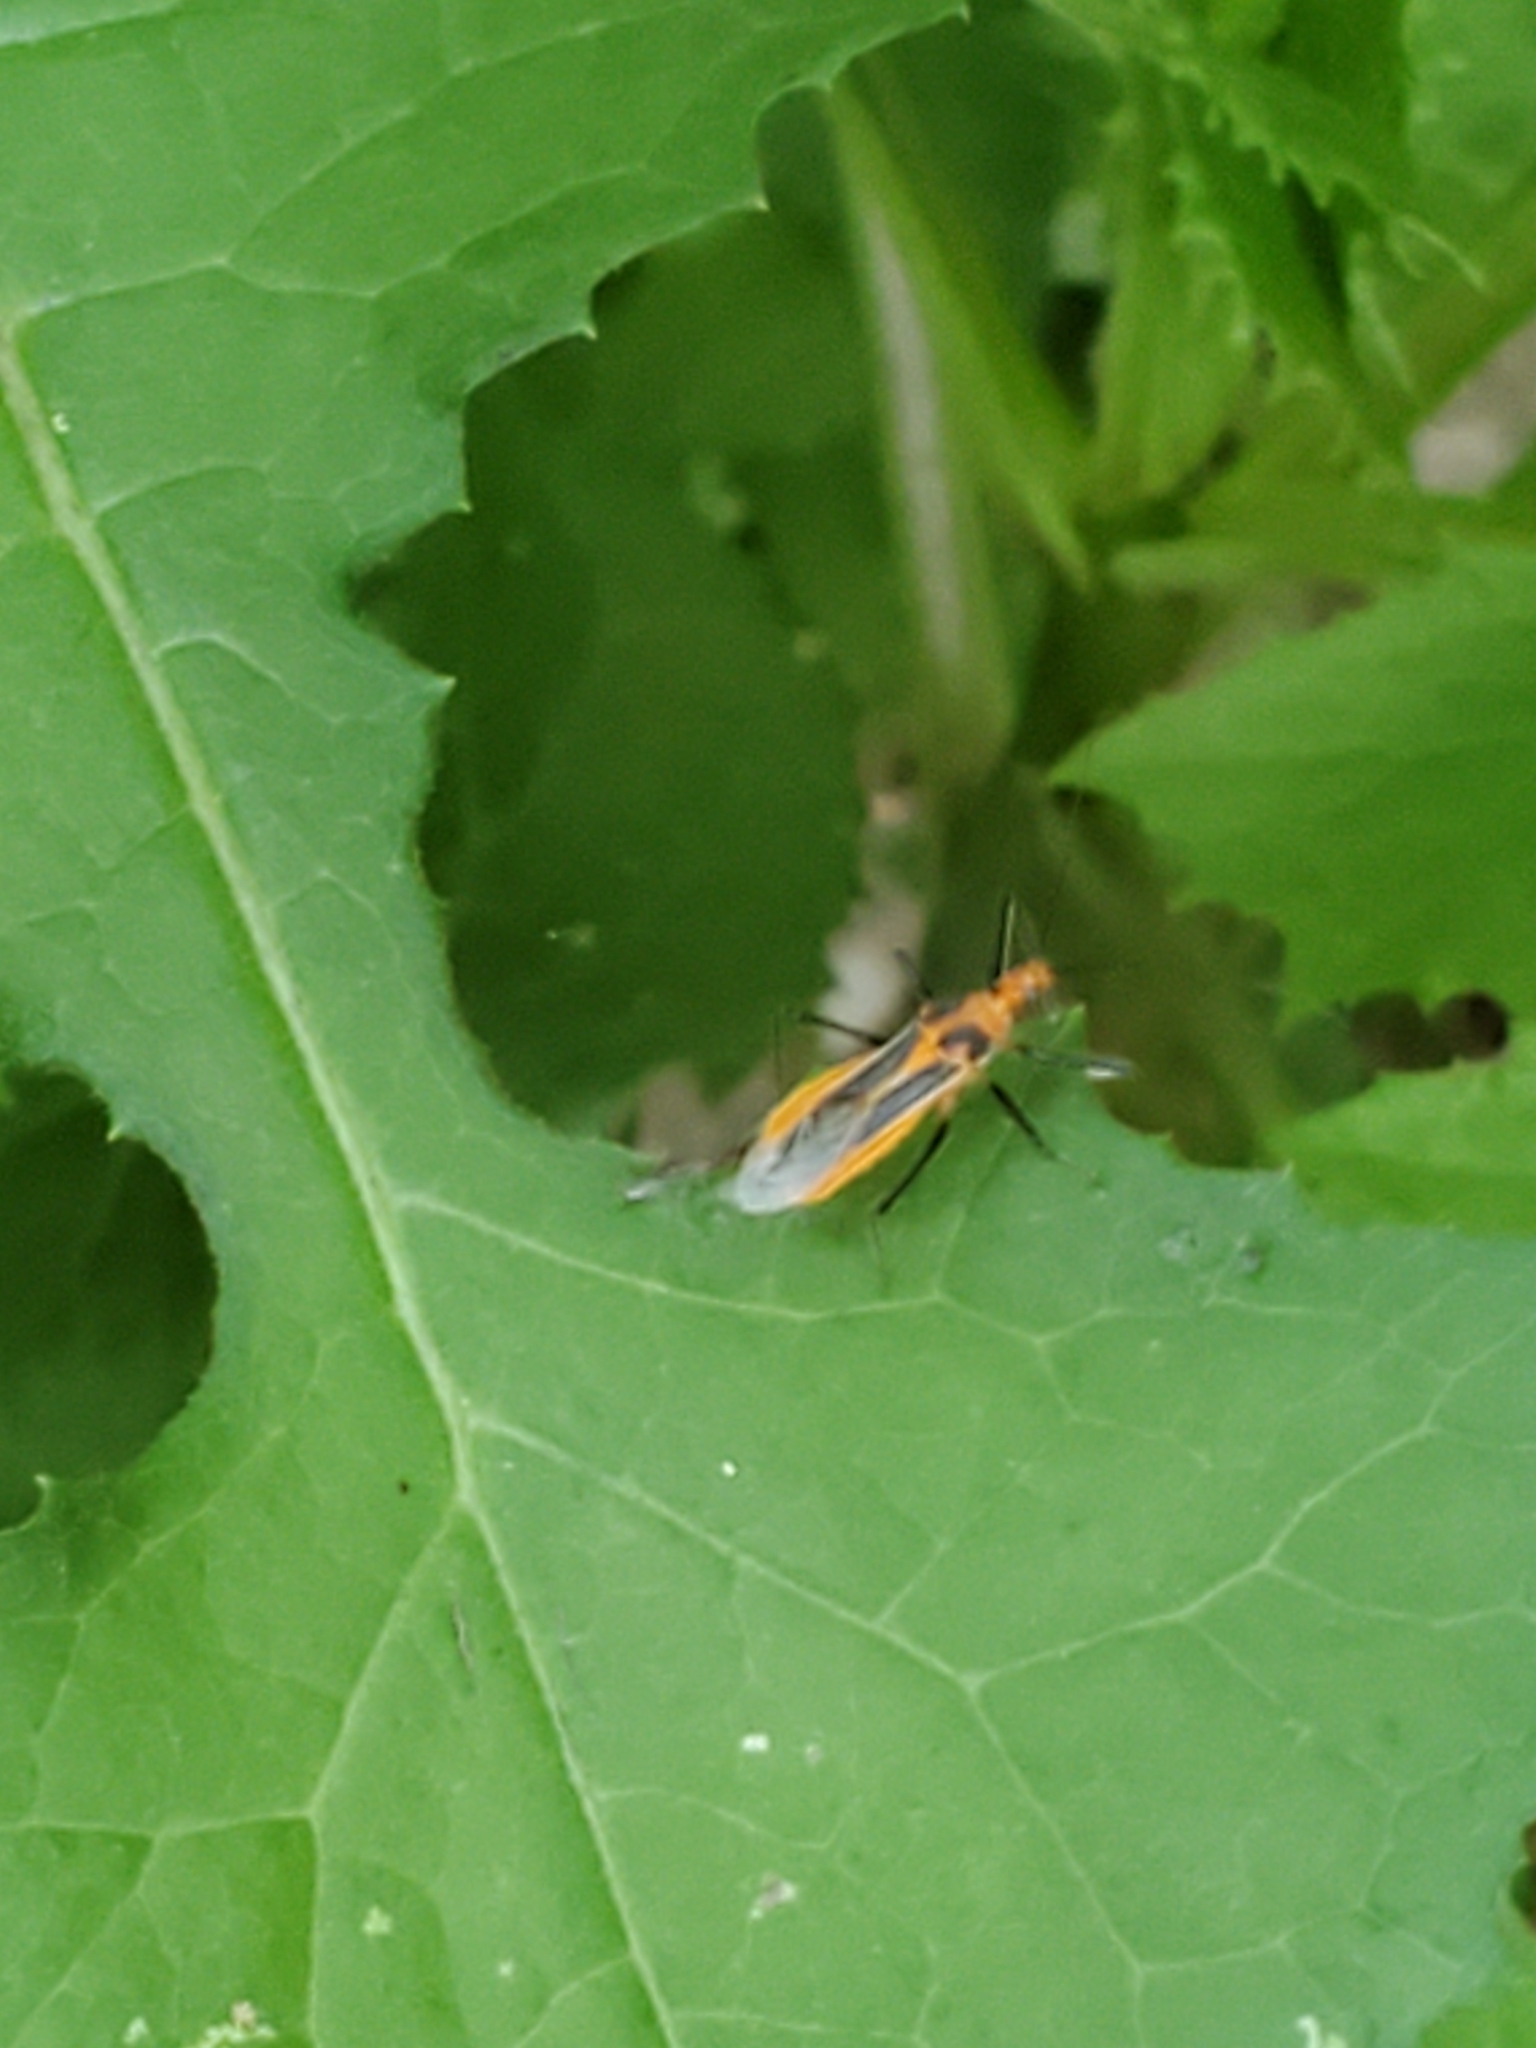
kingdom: Animalia
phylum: Arthropoda
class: Insecta
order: Hemiptera
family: Reduviidae
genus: Repipta
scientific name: Repipta taurus
